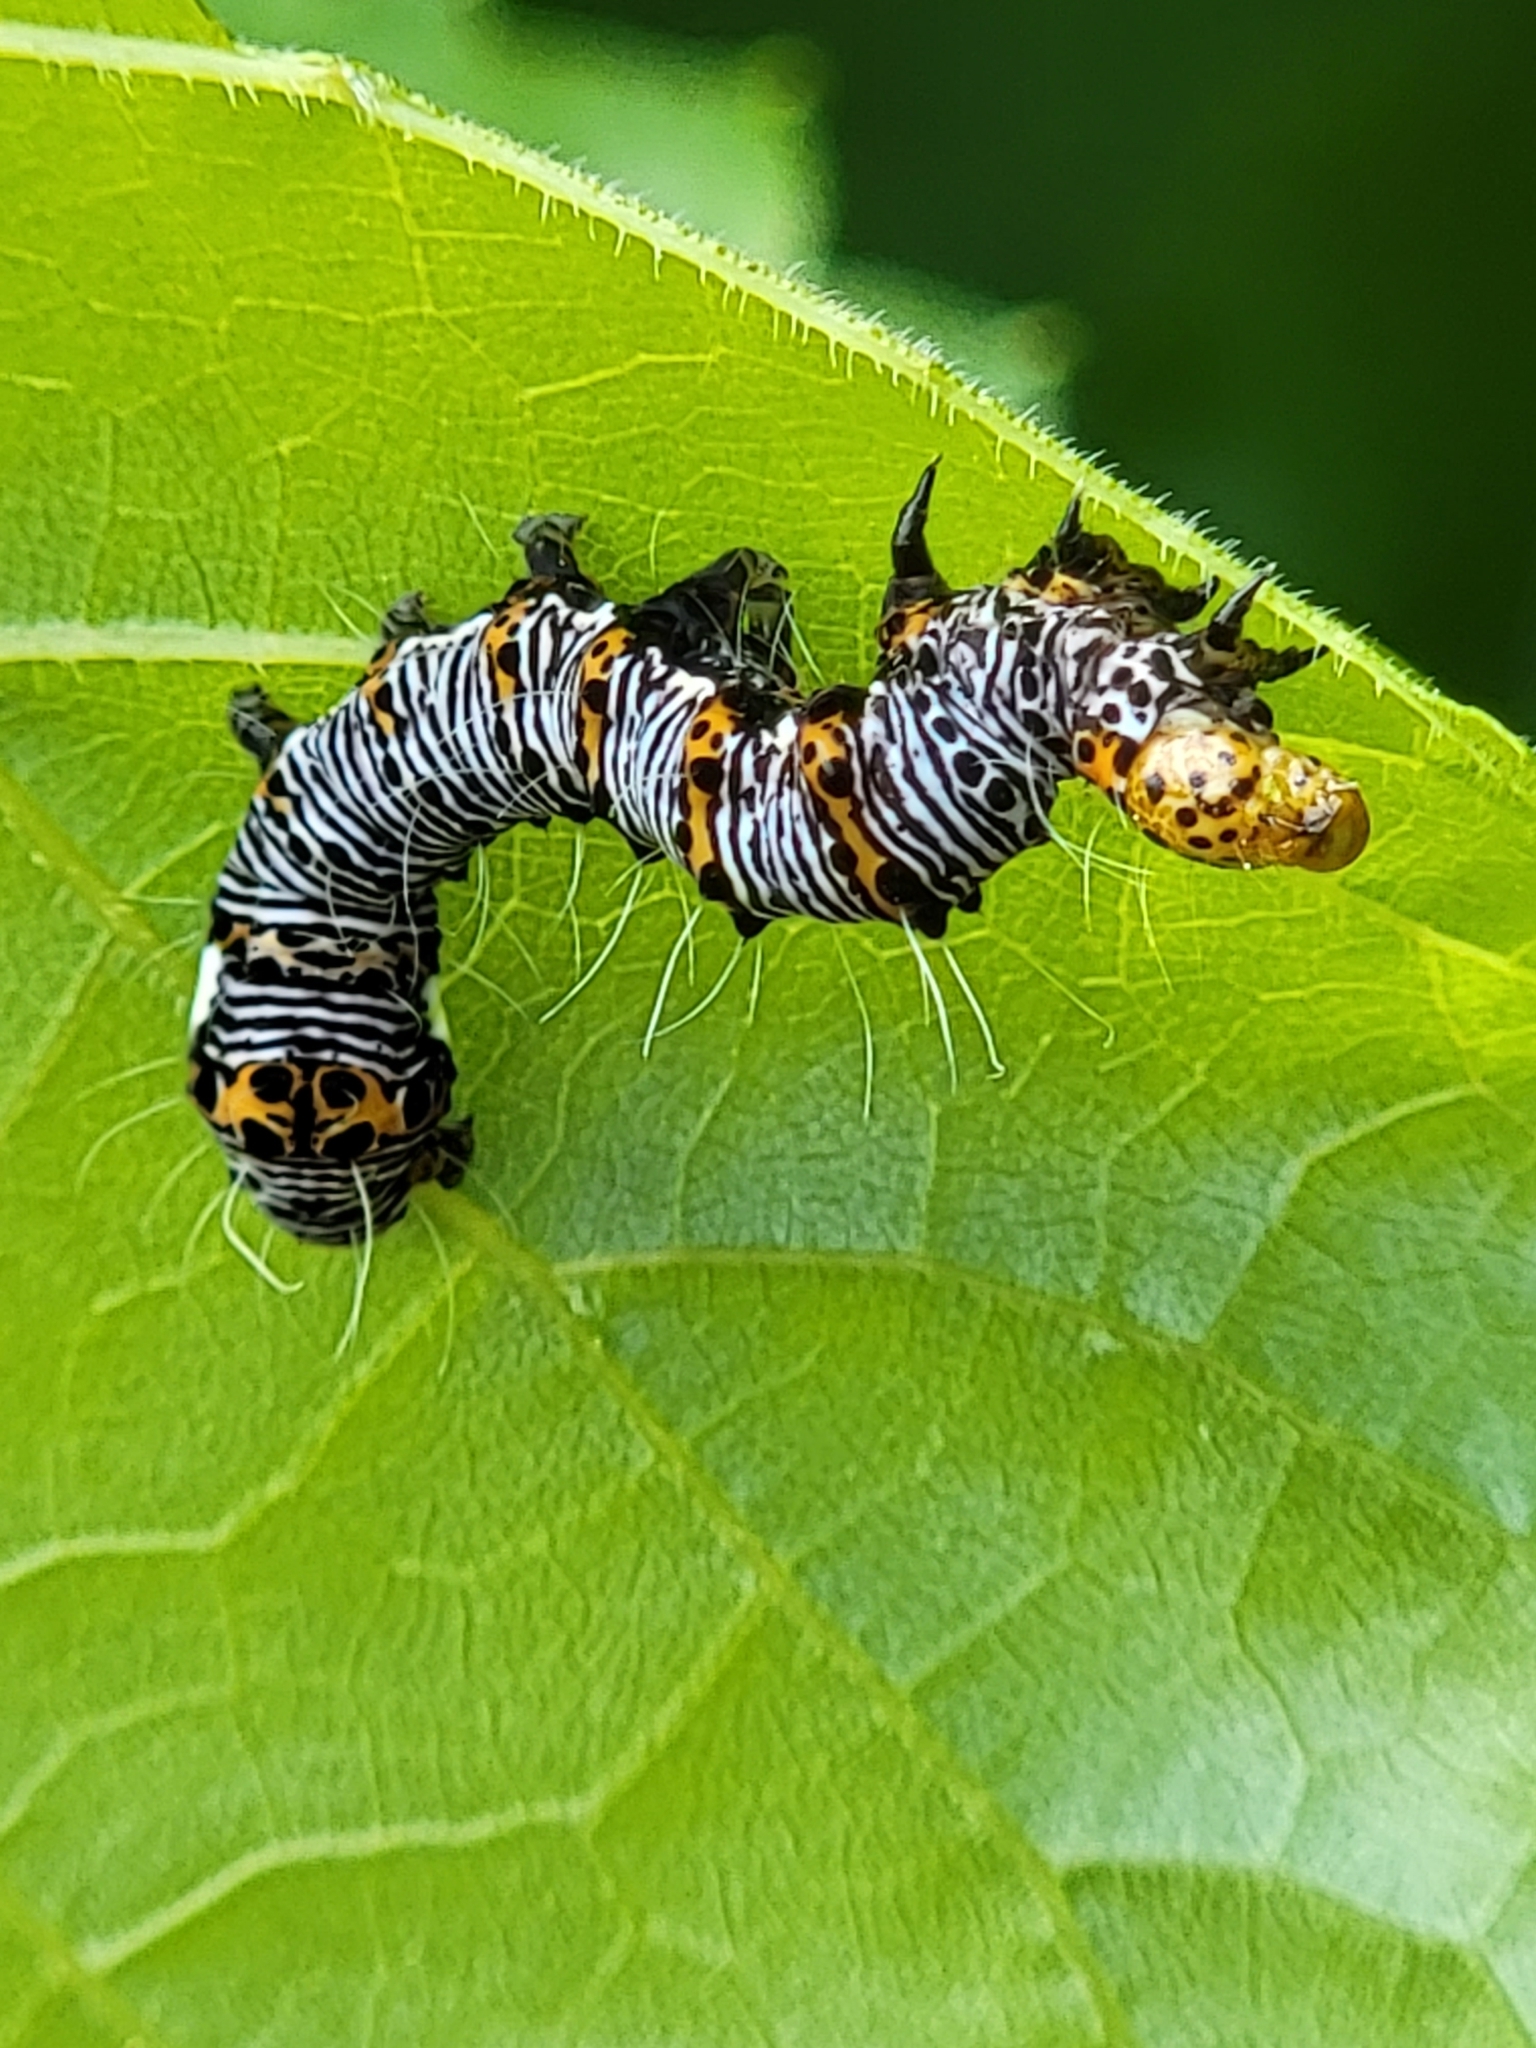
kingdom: Animalia
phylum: Arthropoda
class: Insecta
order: Lepidoptera
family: Noctuidae
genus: Alypia
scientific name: Alypia octomaculata
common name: Eight-spotted forester
